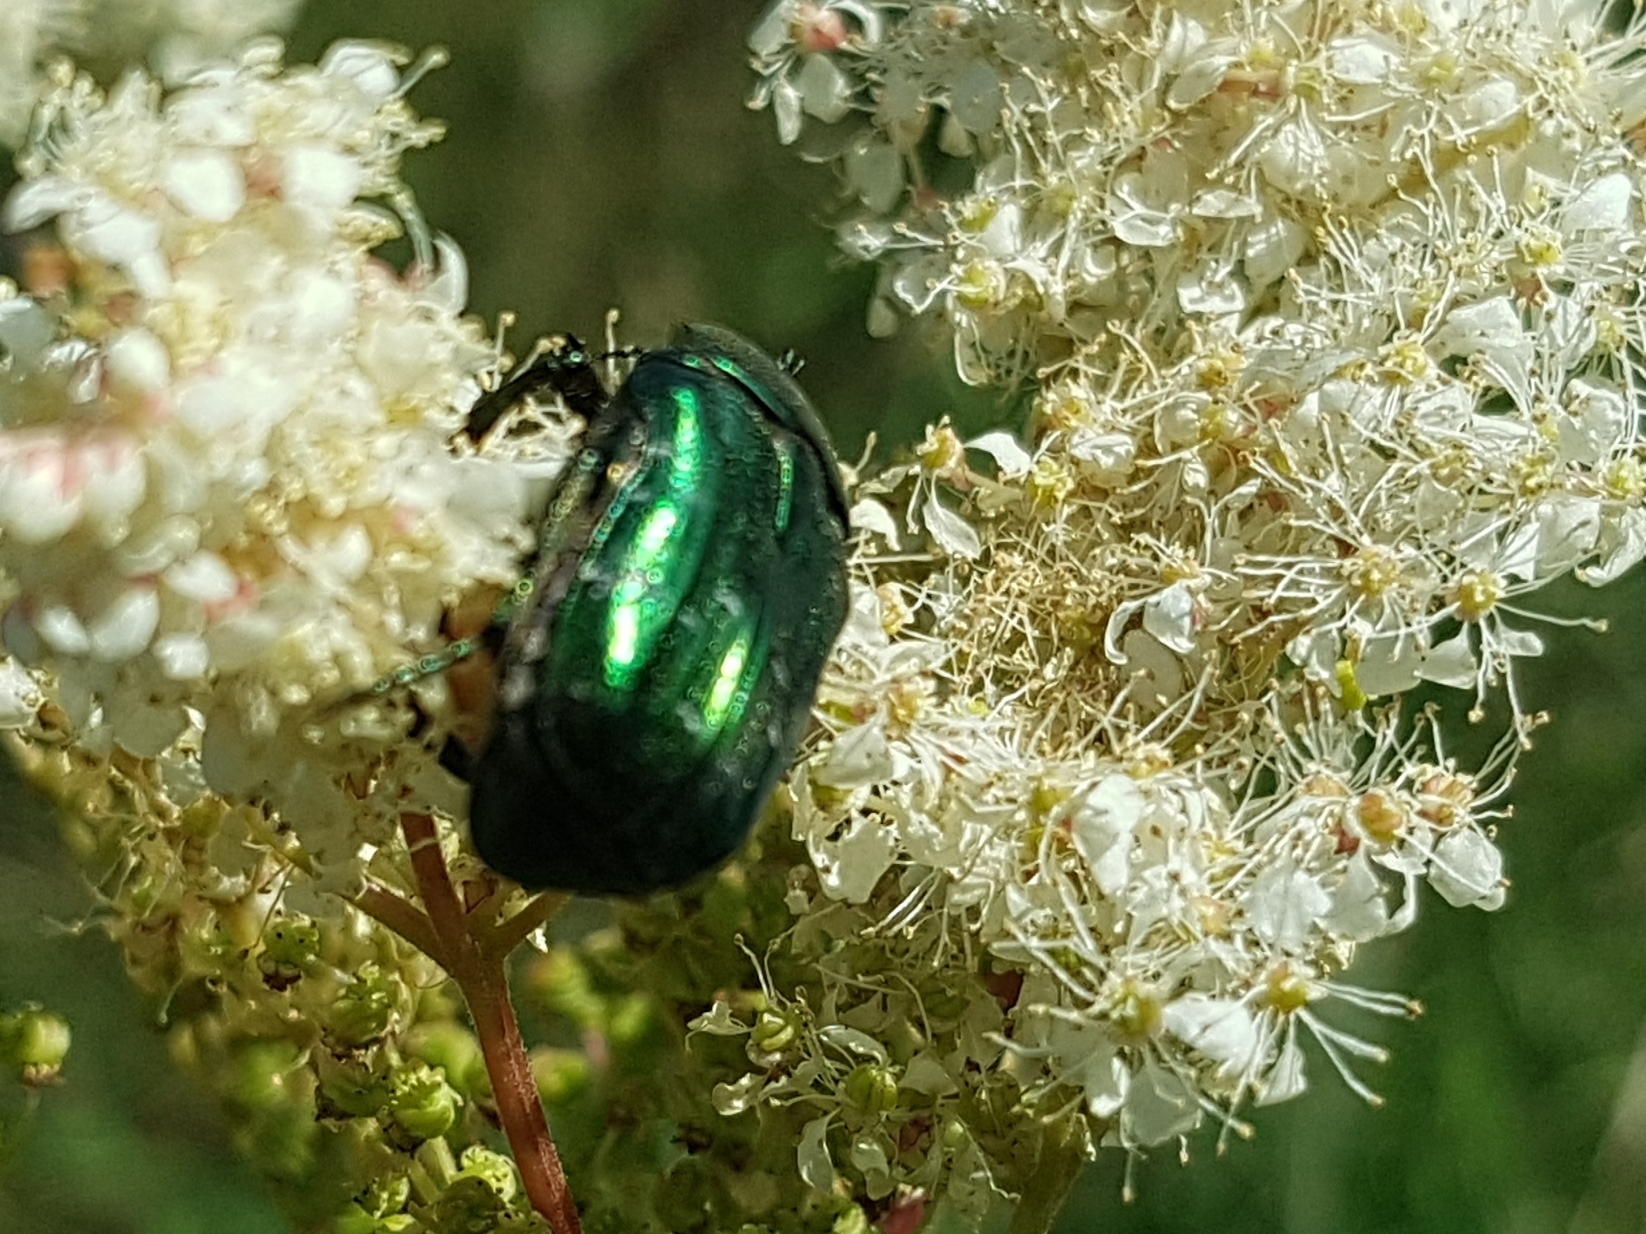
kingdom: Animalia
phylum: Arthropoda
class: Insecta
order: Coleoptera
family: Scarabaeidae
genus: Cetonia
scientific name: Cetonia aurata
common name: Rose chafer
